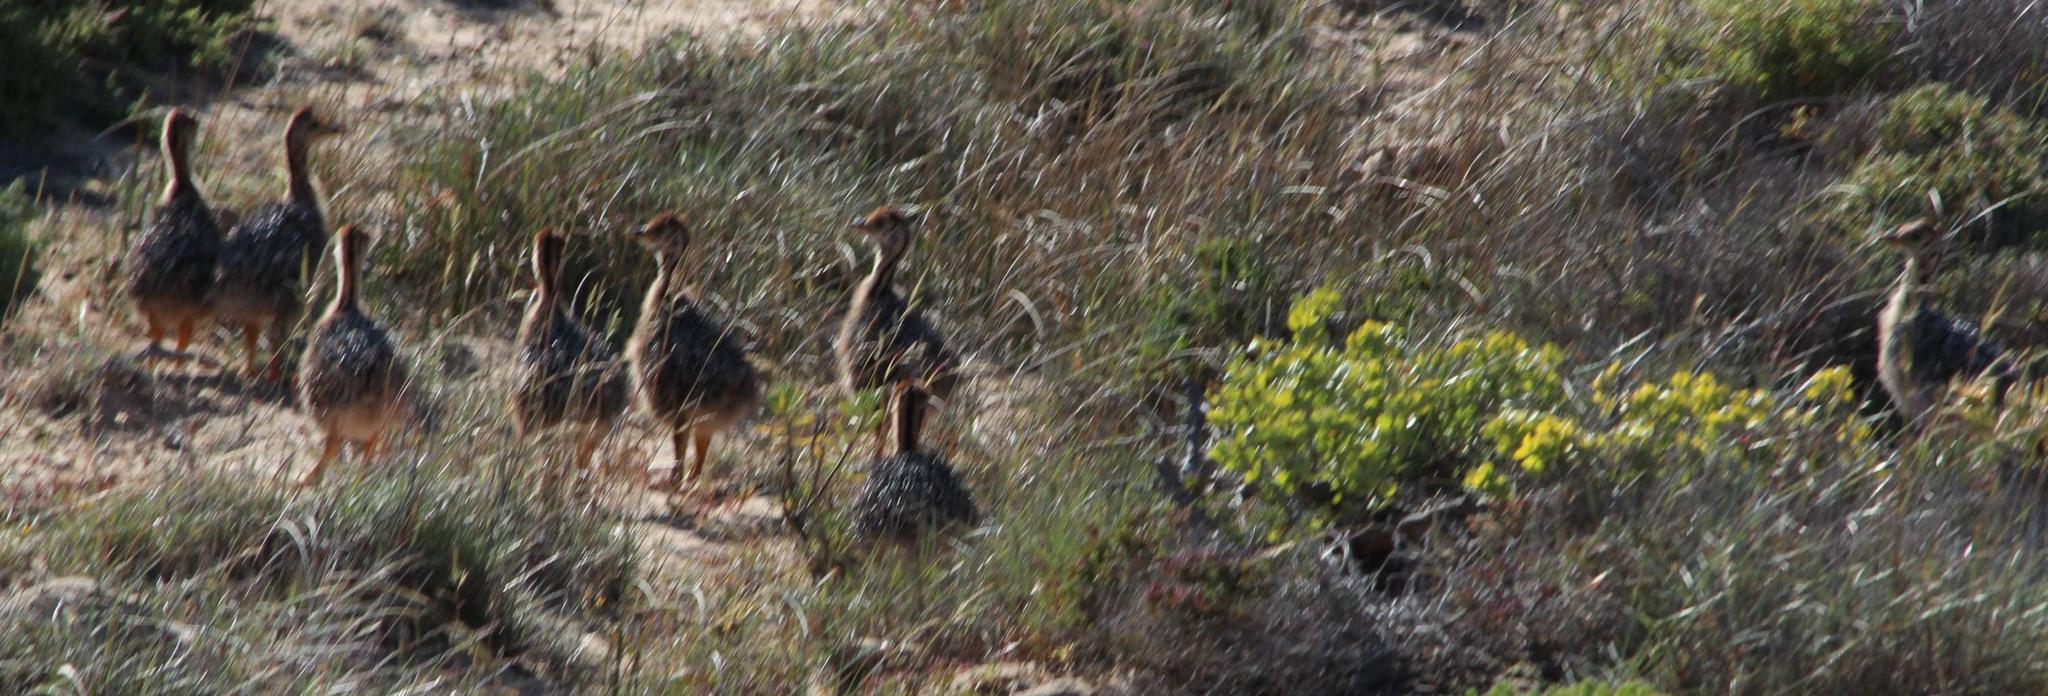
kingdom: Animalia
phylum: Chordata
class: Aves
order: Struthioniformes
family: Struthionidae
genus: Struthio
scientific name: Struthio camelus
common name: Common ostrich
